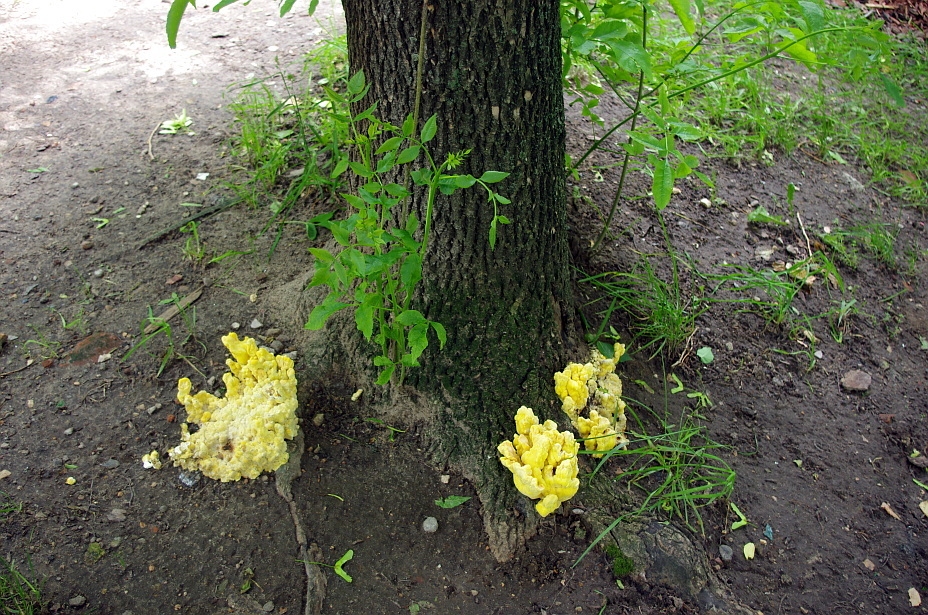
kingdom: Fungi
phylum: Basidiomycota
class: Agaricomycetes
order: Polyporales
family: Laetiporaceae
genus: Laetiporus
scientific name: Laetiporus sulphureus
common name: Chicken of the woods
